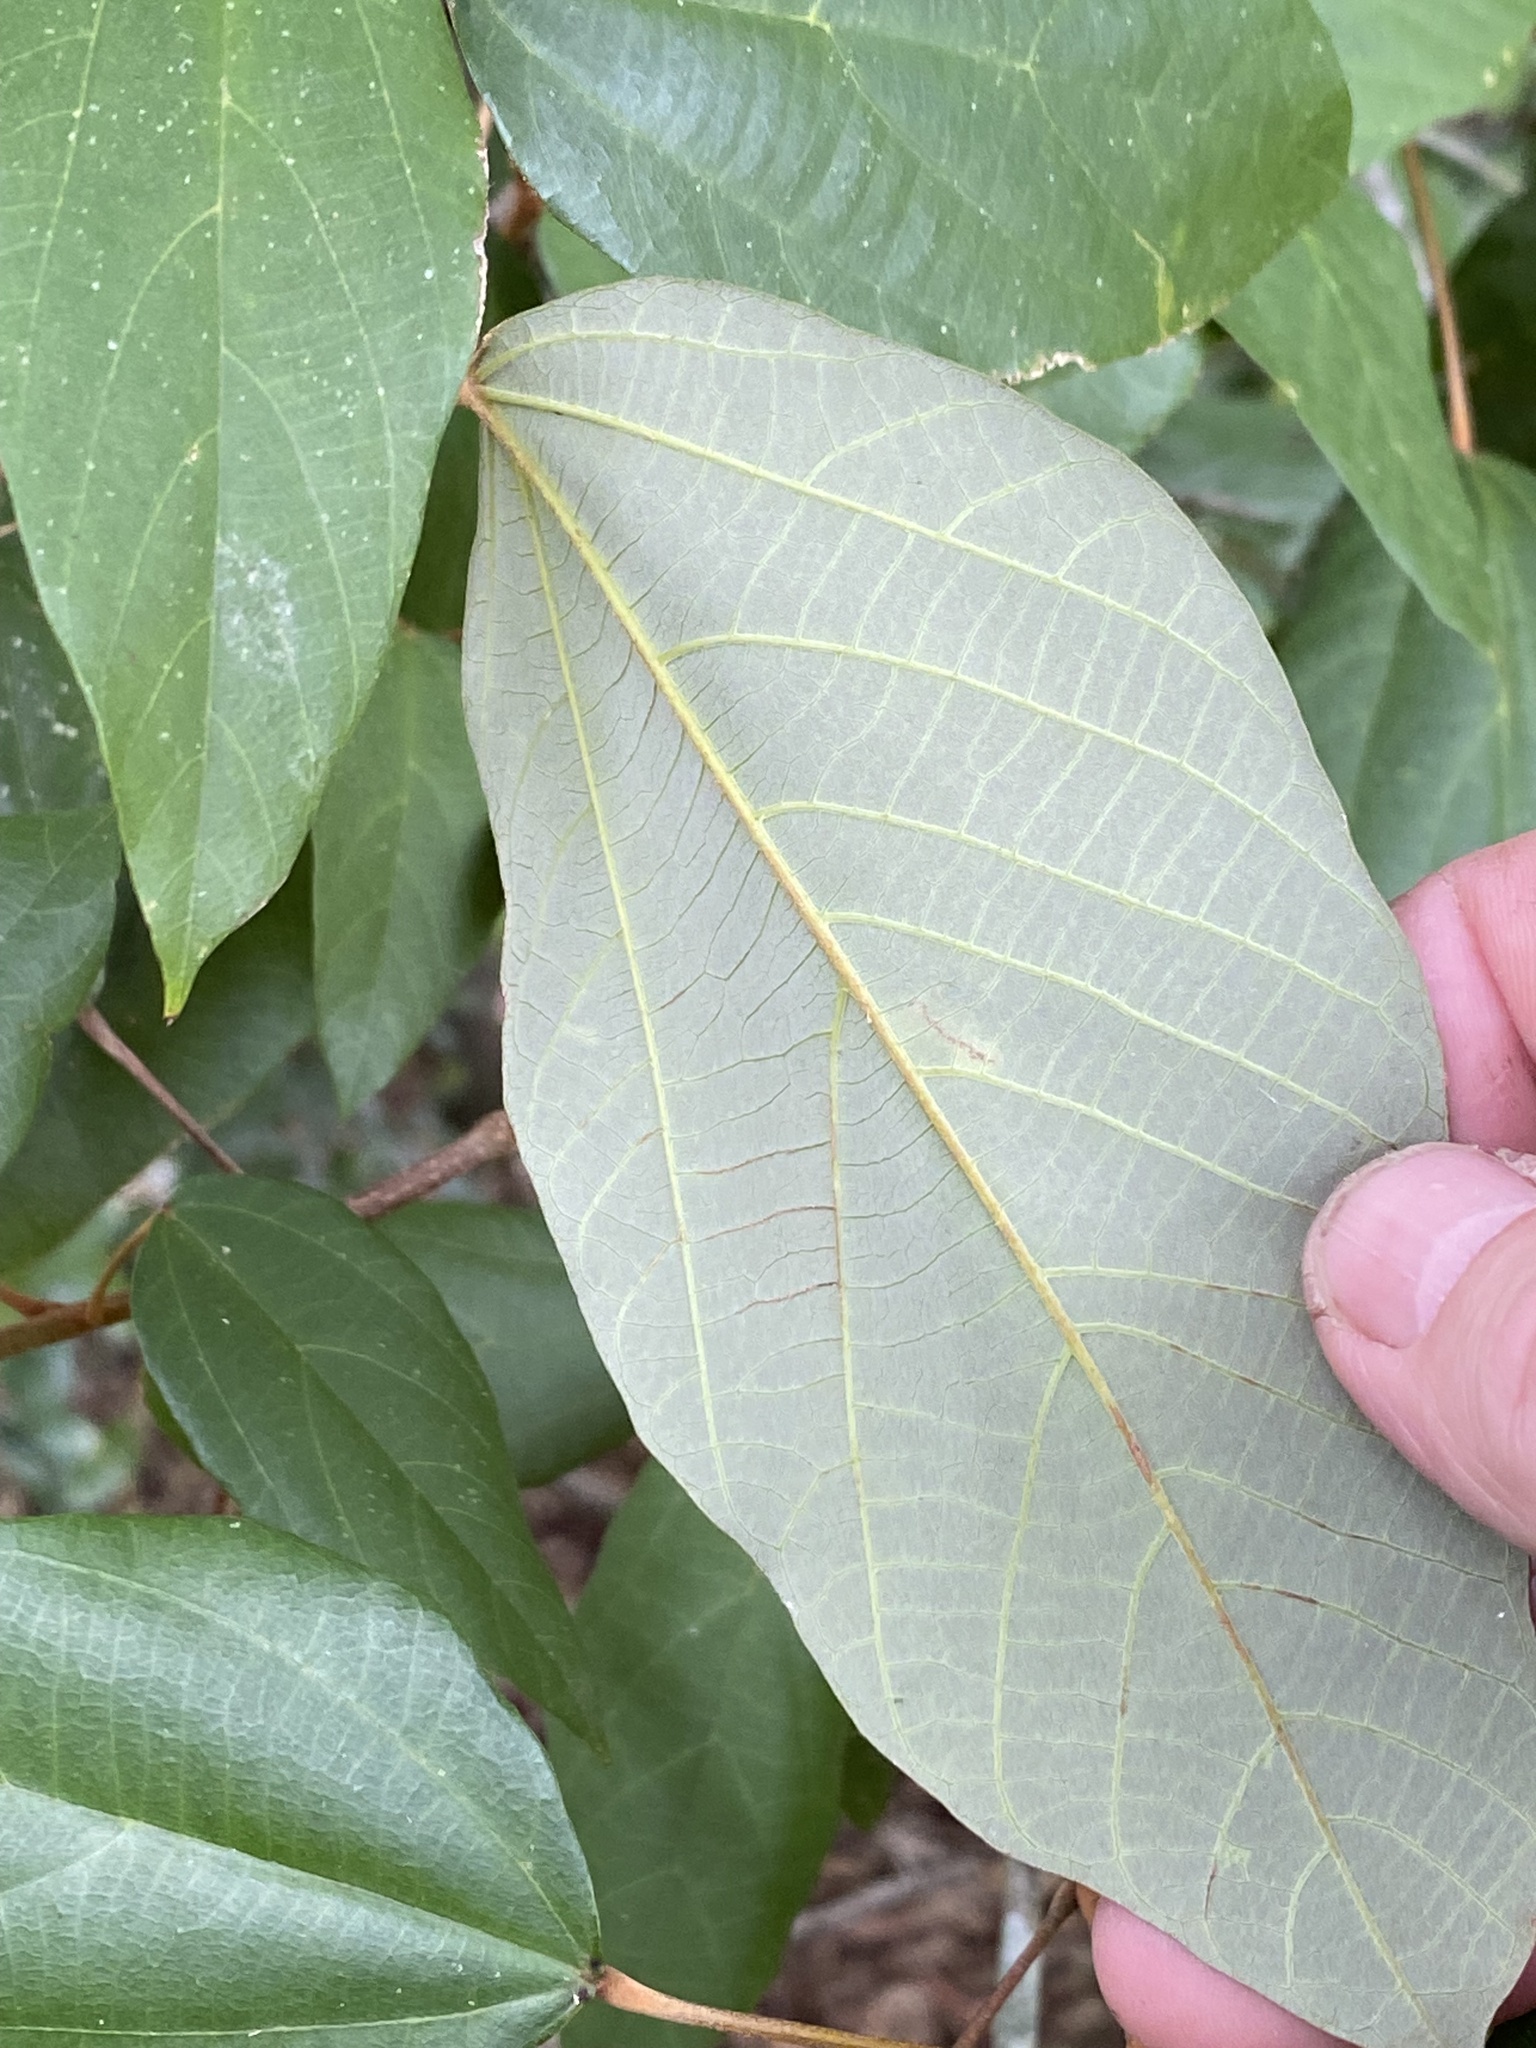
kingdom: Plantae
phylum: Tracheophyta
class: Magnoliopsida
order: Malpighiales
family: Euphorbiaceae
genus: Mallotus
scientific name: Mallotus philippensis
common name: Kamala tree
